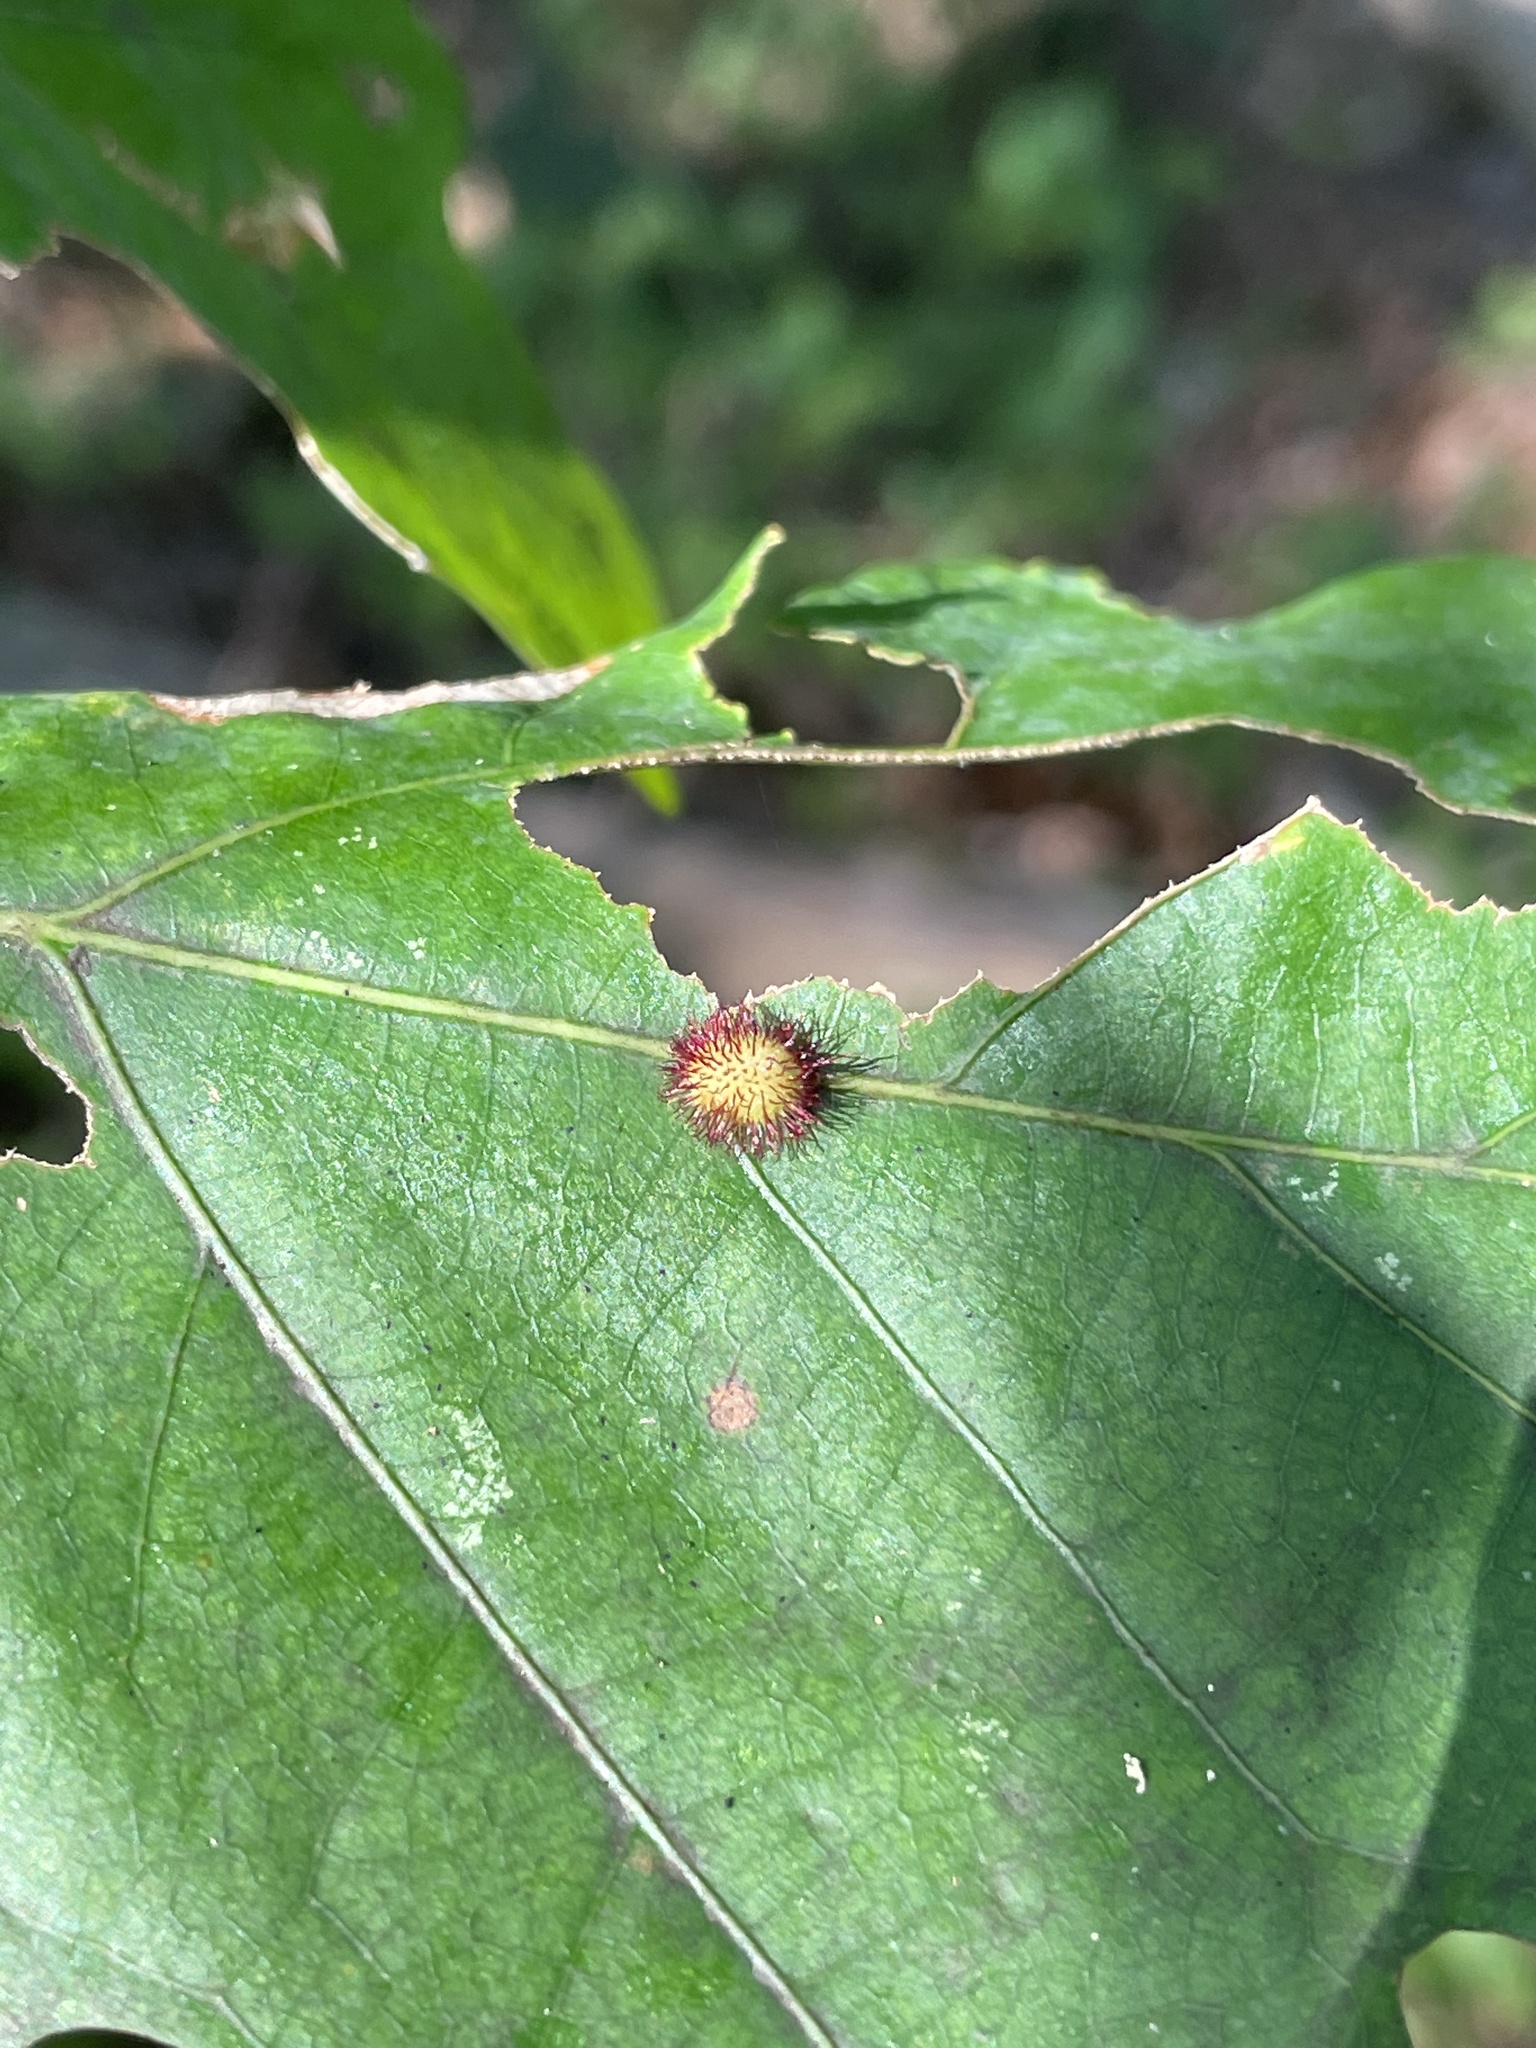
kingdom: Animalia
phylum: Arthropoda
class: Insecta
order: Hymenoptera
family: Cynipidae
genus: Acraspis
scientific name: Acraspis erinacei
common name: Hedgehog gall wasp
